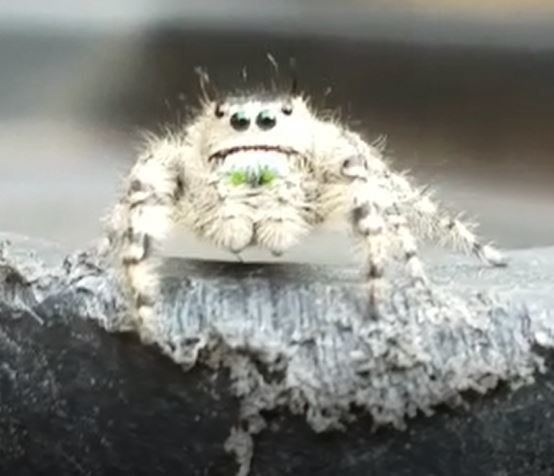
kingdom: Animalia
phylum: Arthropoda
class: Arachnida
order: Araneae
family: Salticidae
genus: Phidippus
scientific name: Phidippus otiosus
